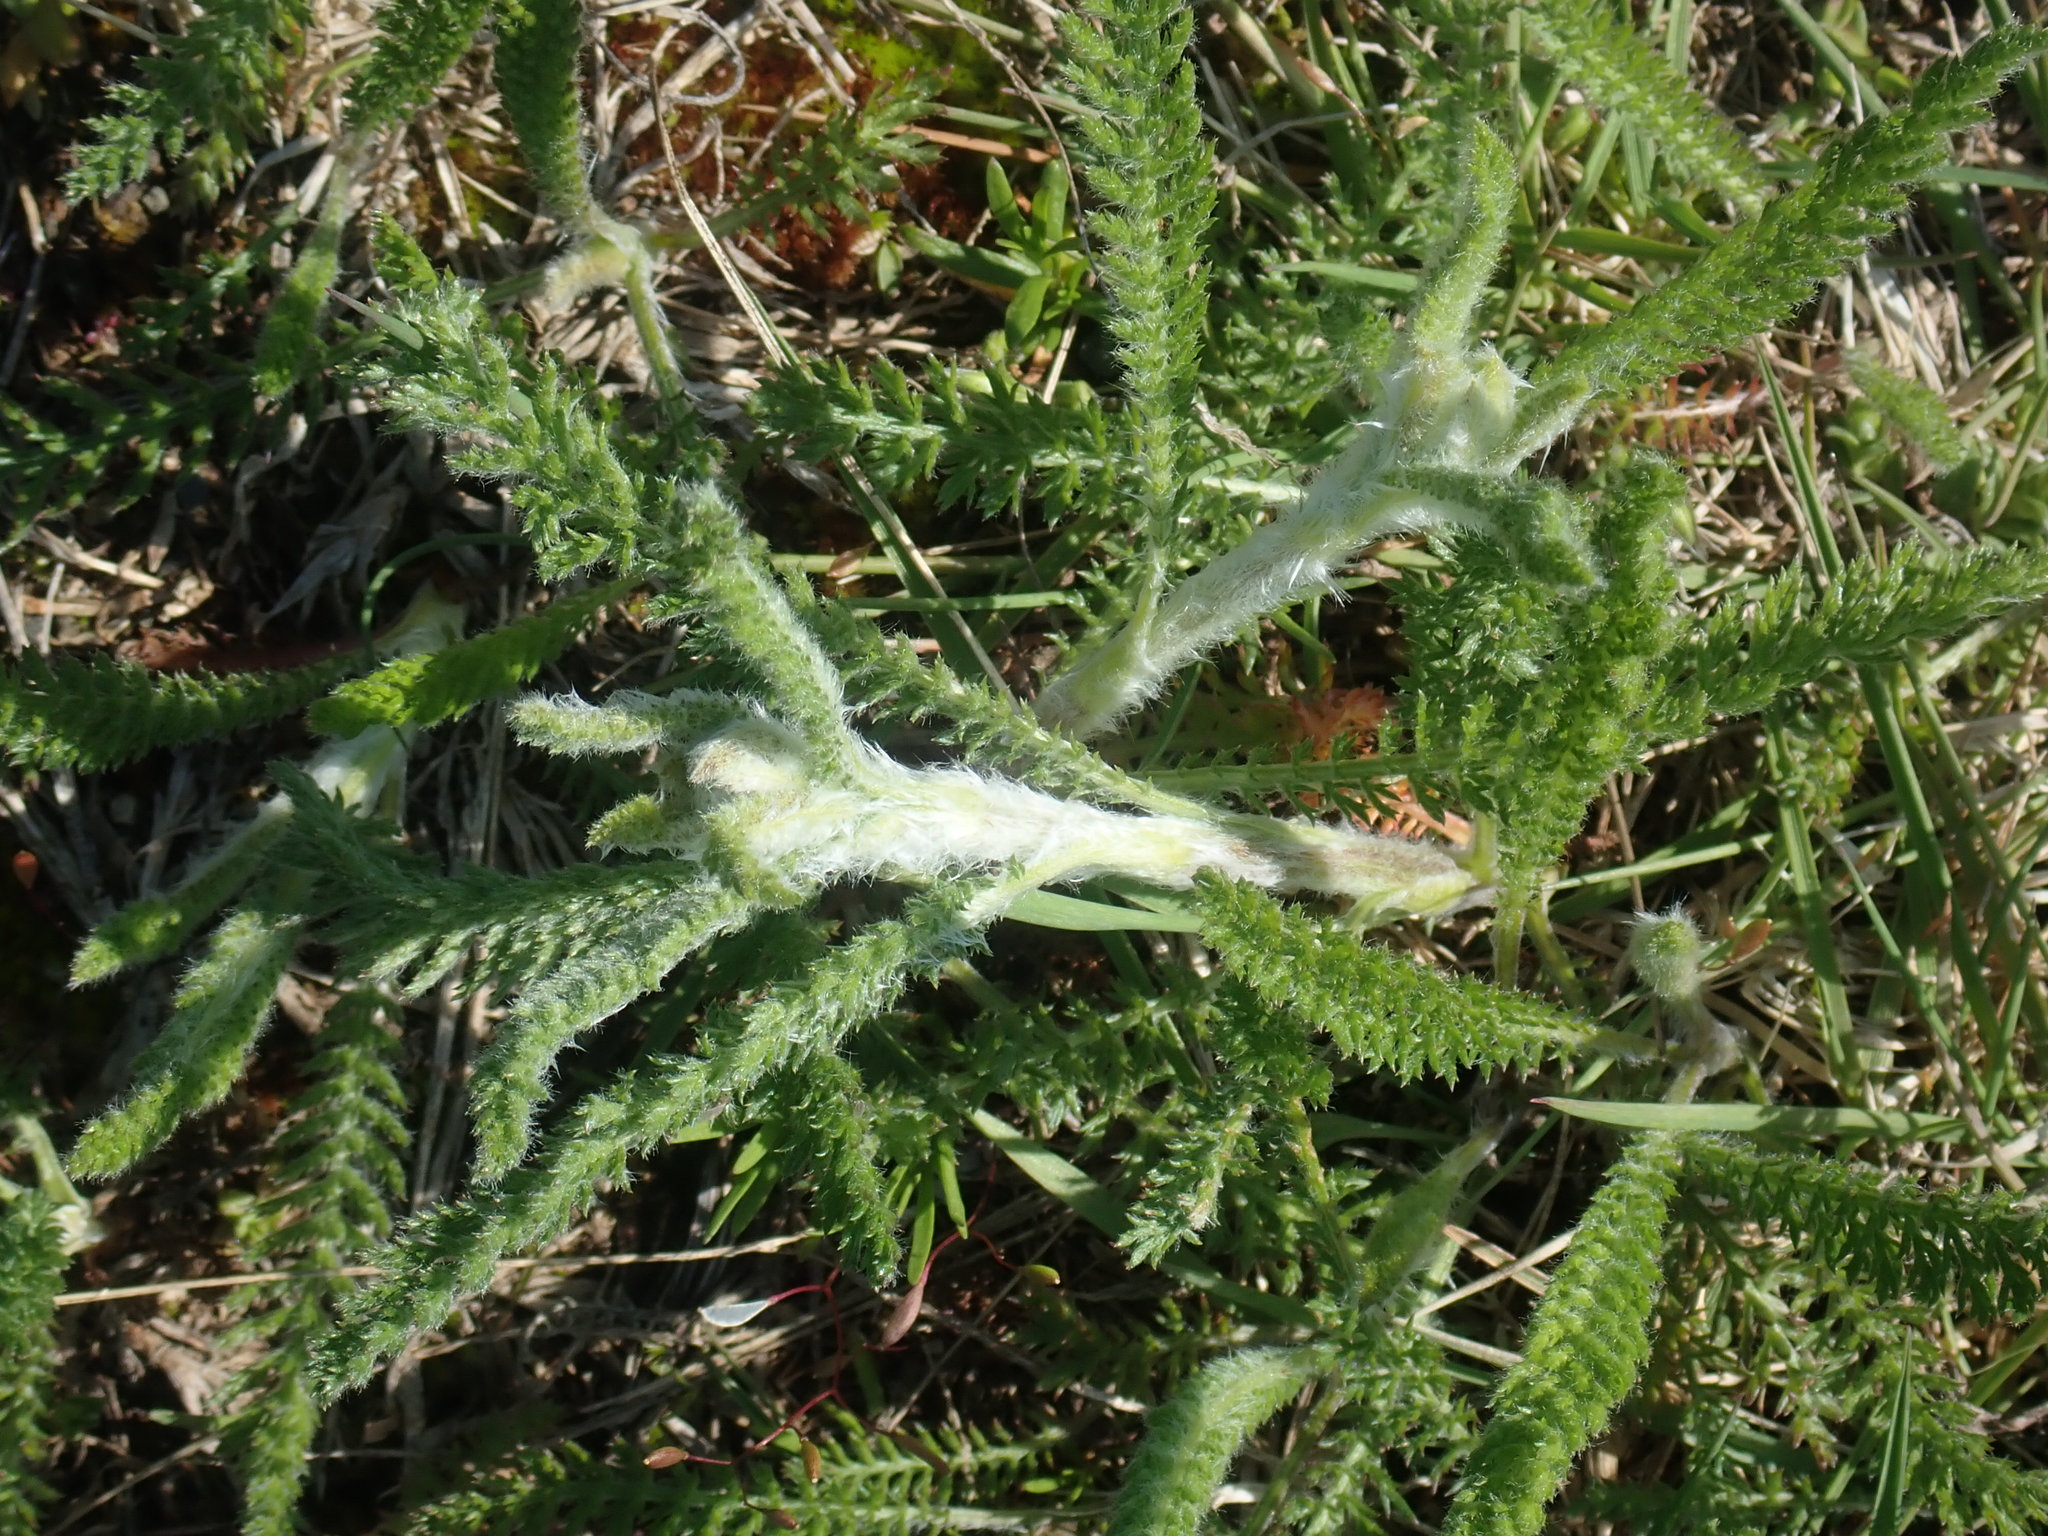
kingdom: Plantae
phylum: Tracheophyta
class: Magnoliopsida
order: Asterales
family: Asteraceae
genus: Achillea
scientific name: Achillea millefolium
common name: Yarrow
